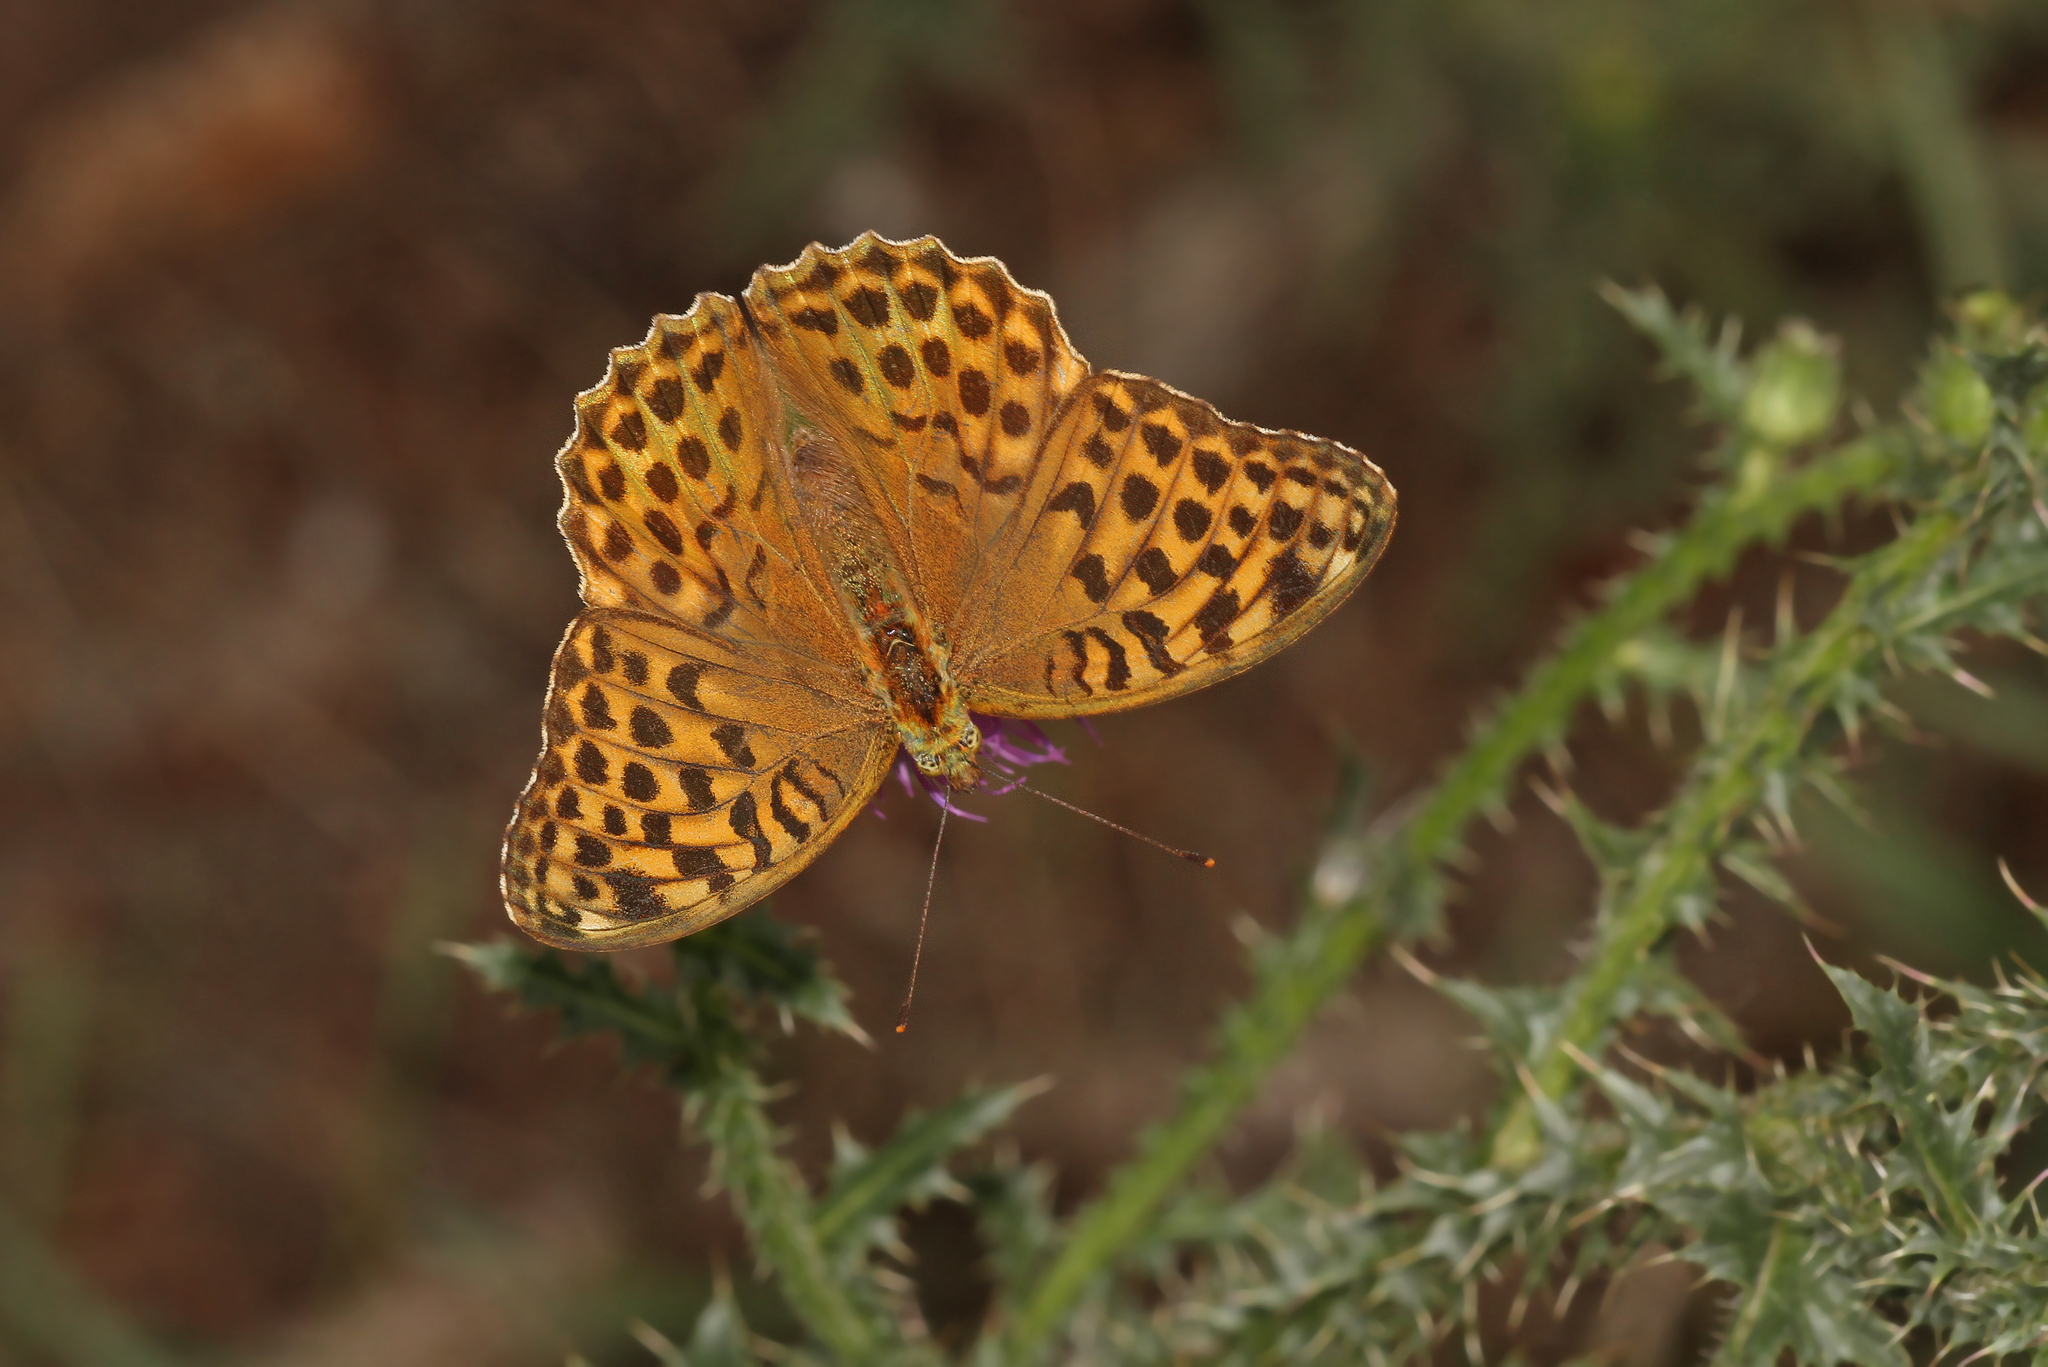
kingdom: Animalia
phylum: Arthropoda
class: Insecta
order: Lepidoptera
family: Nymphalidae
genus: Argynnis
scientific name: Argynnis paphia
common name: Silver-washed fritillary
